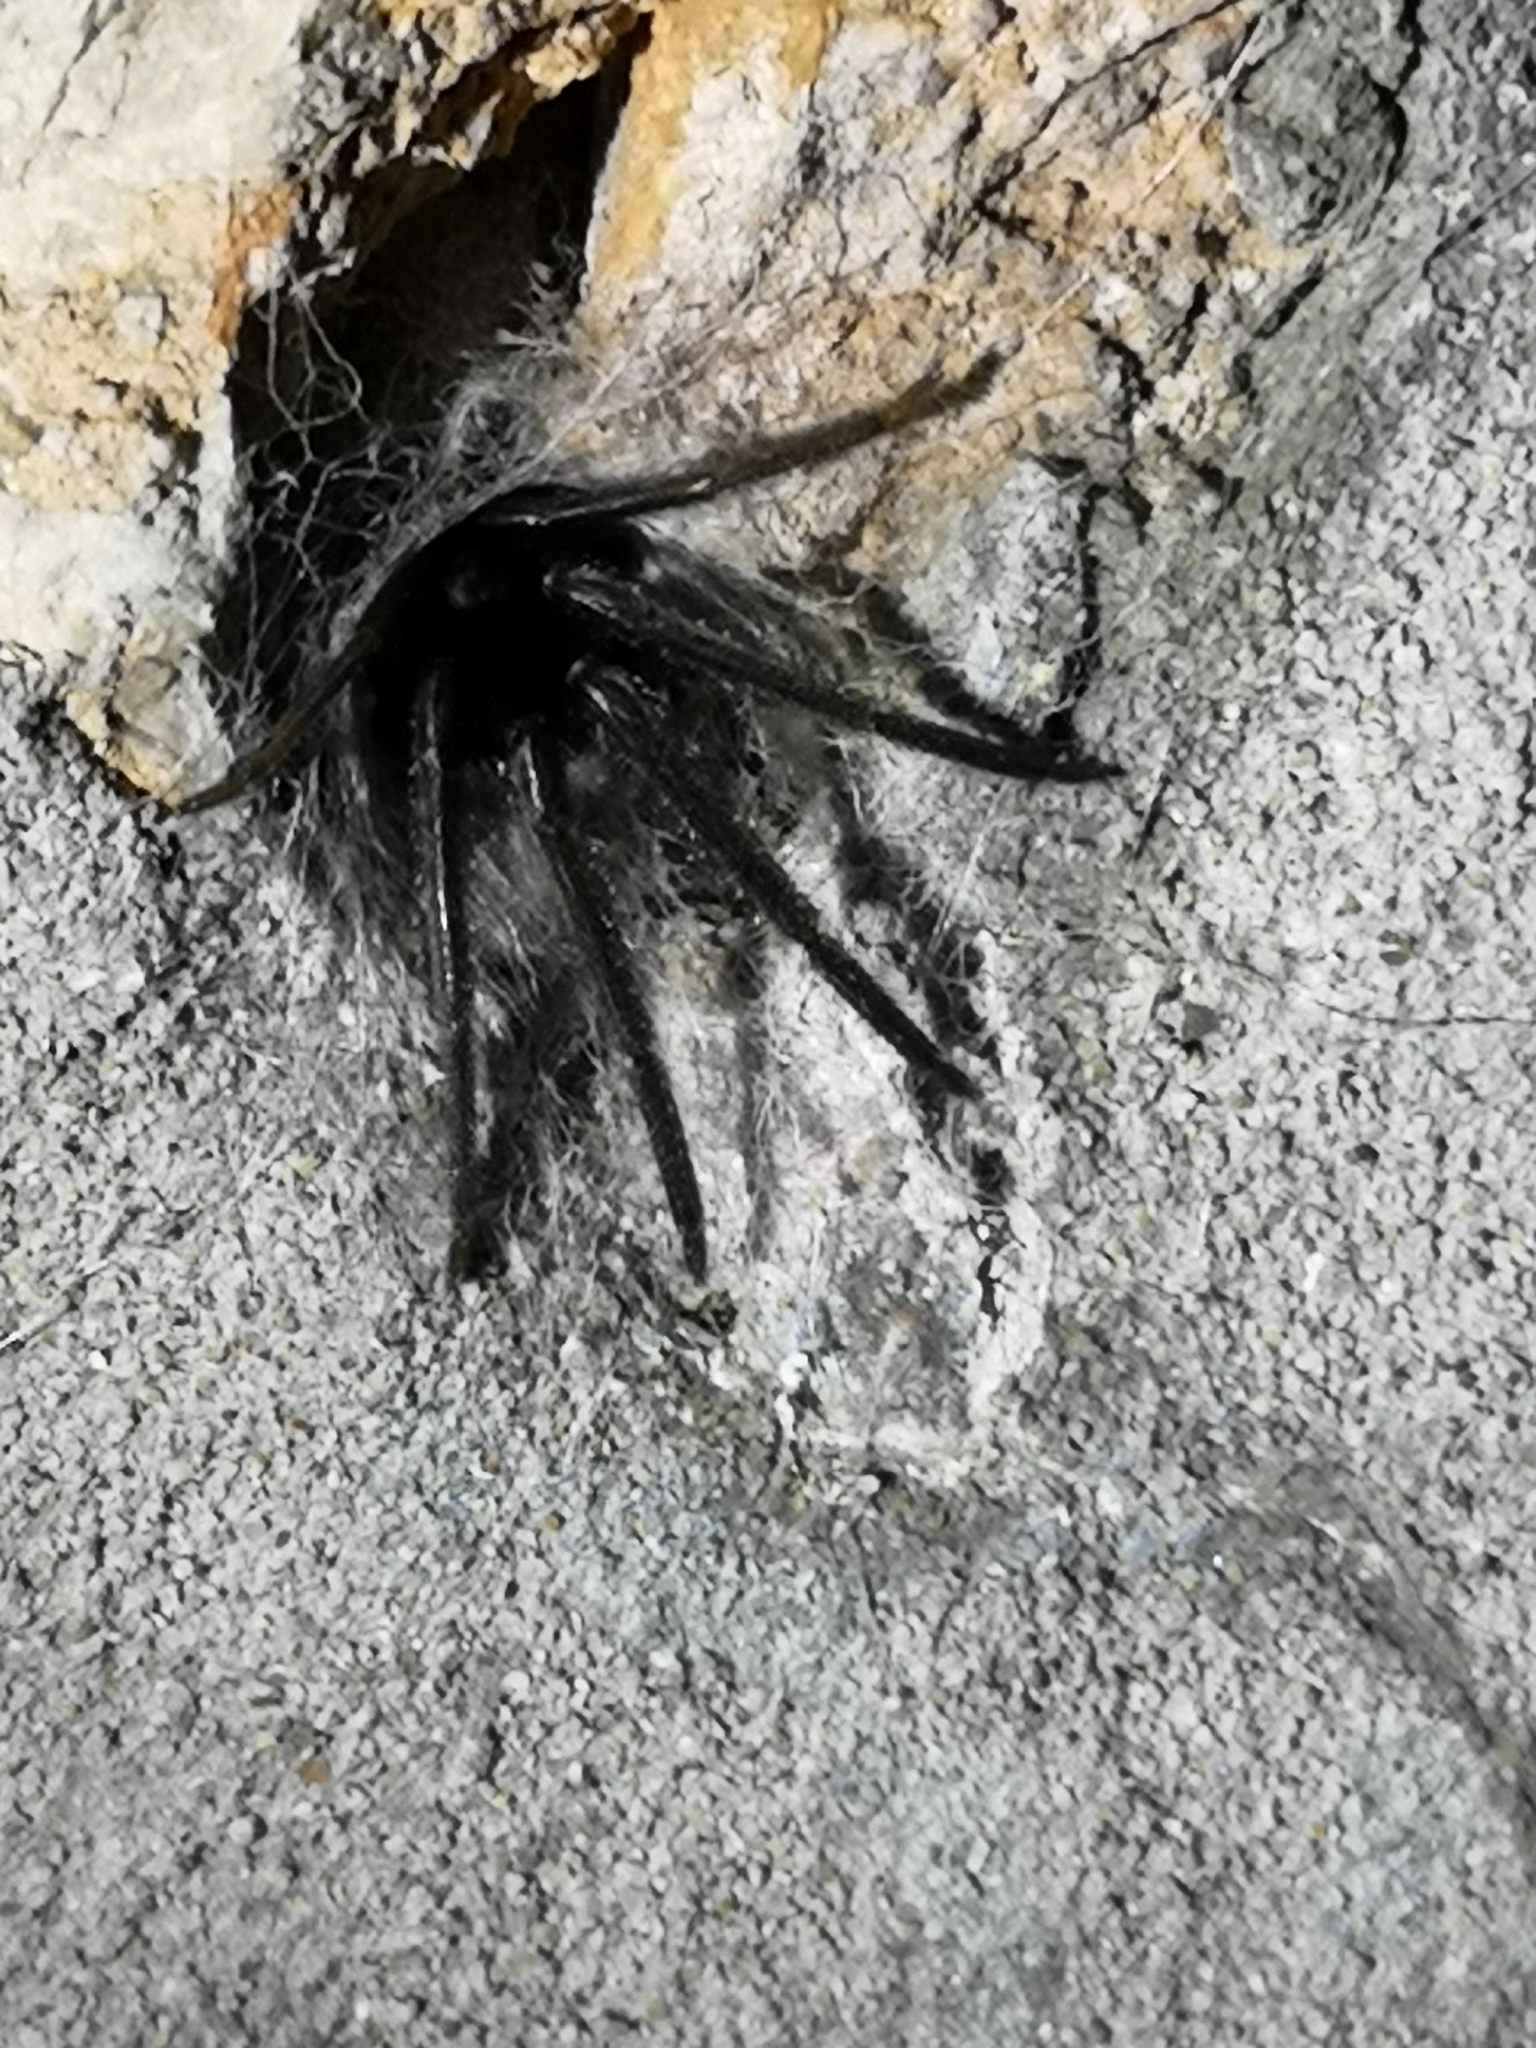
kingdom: Animalia
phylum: Arthropoda
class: Arachnida
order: Araneae
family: Segestriidae
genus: Segestria
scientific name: Segestria florentina
